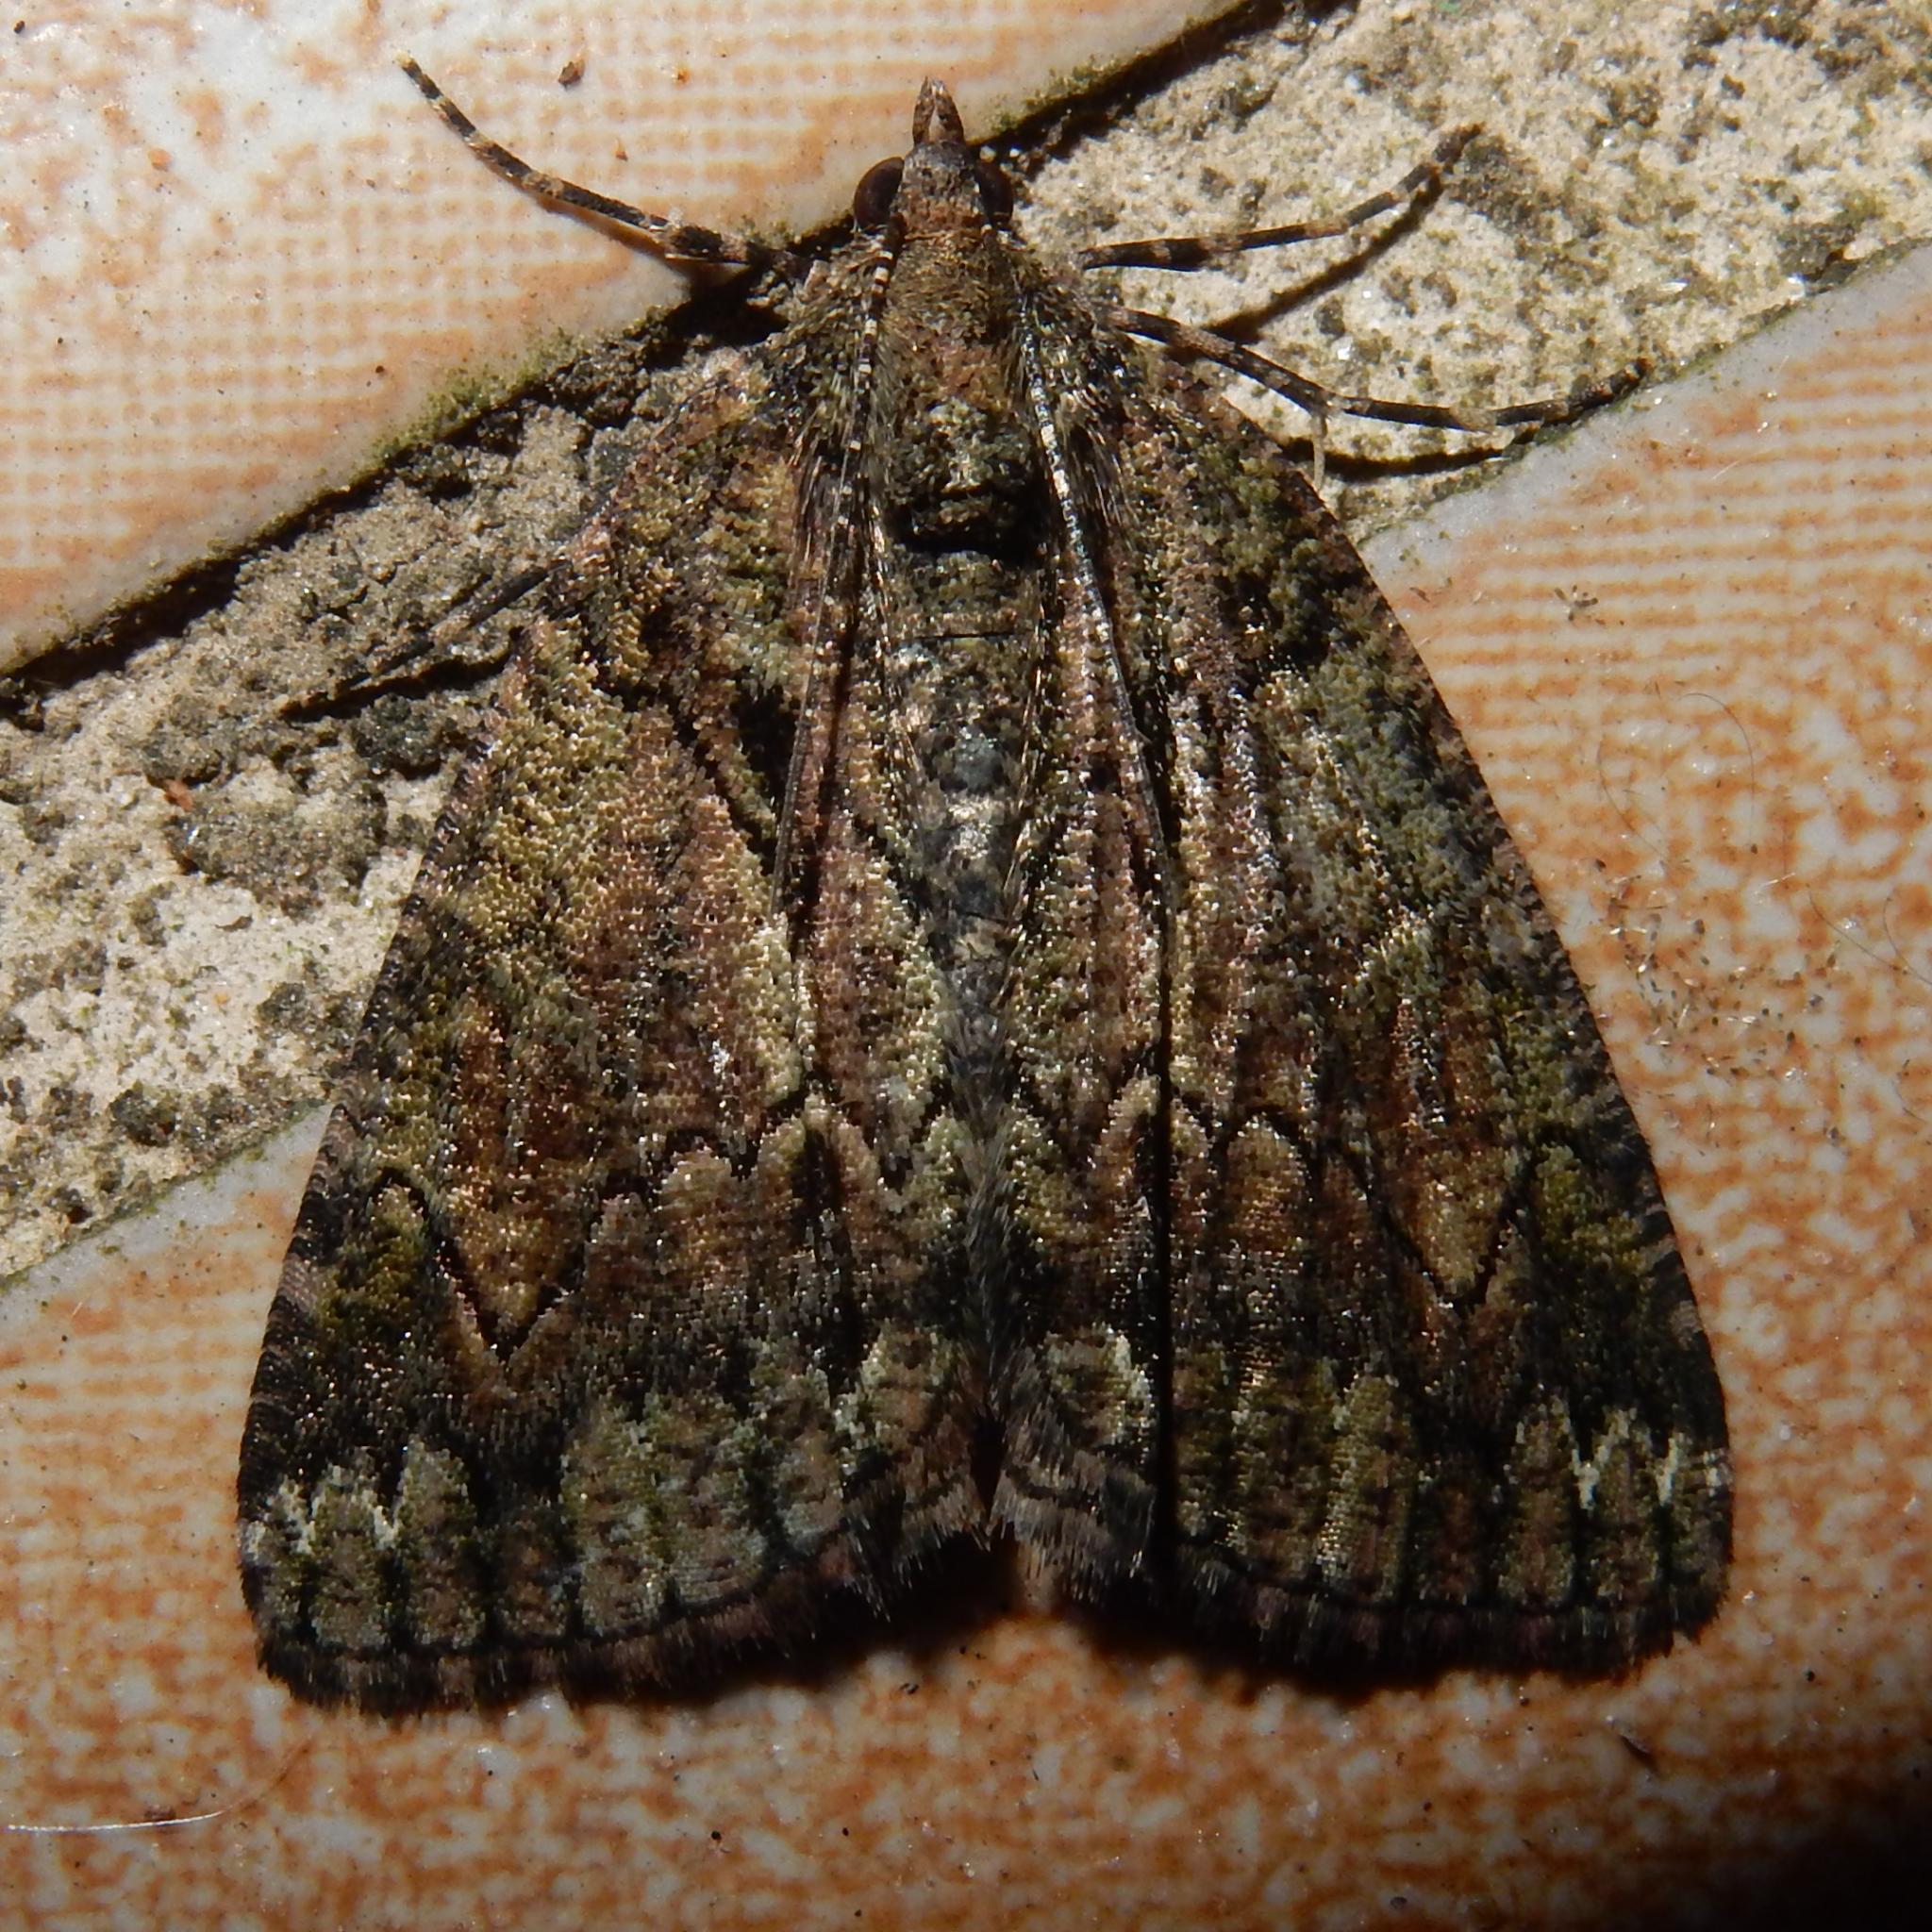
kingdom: Animalia
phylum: Arthropoda
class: Insecta
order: Lepidoptera
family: Geometridae
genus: Xylopteryx
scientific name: Xylopteryx arcuata
